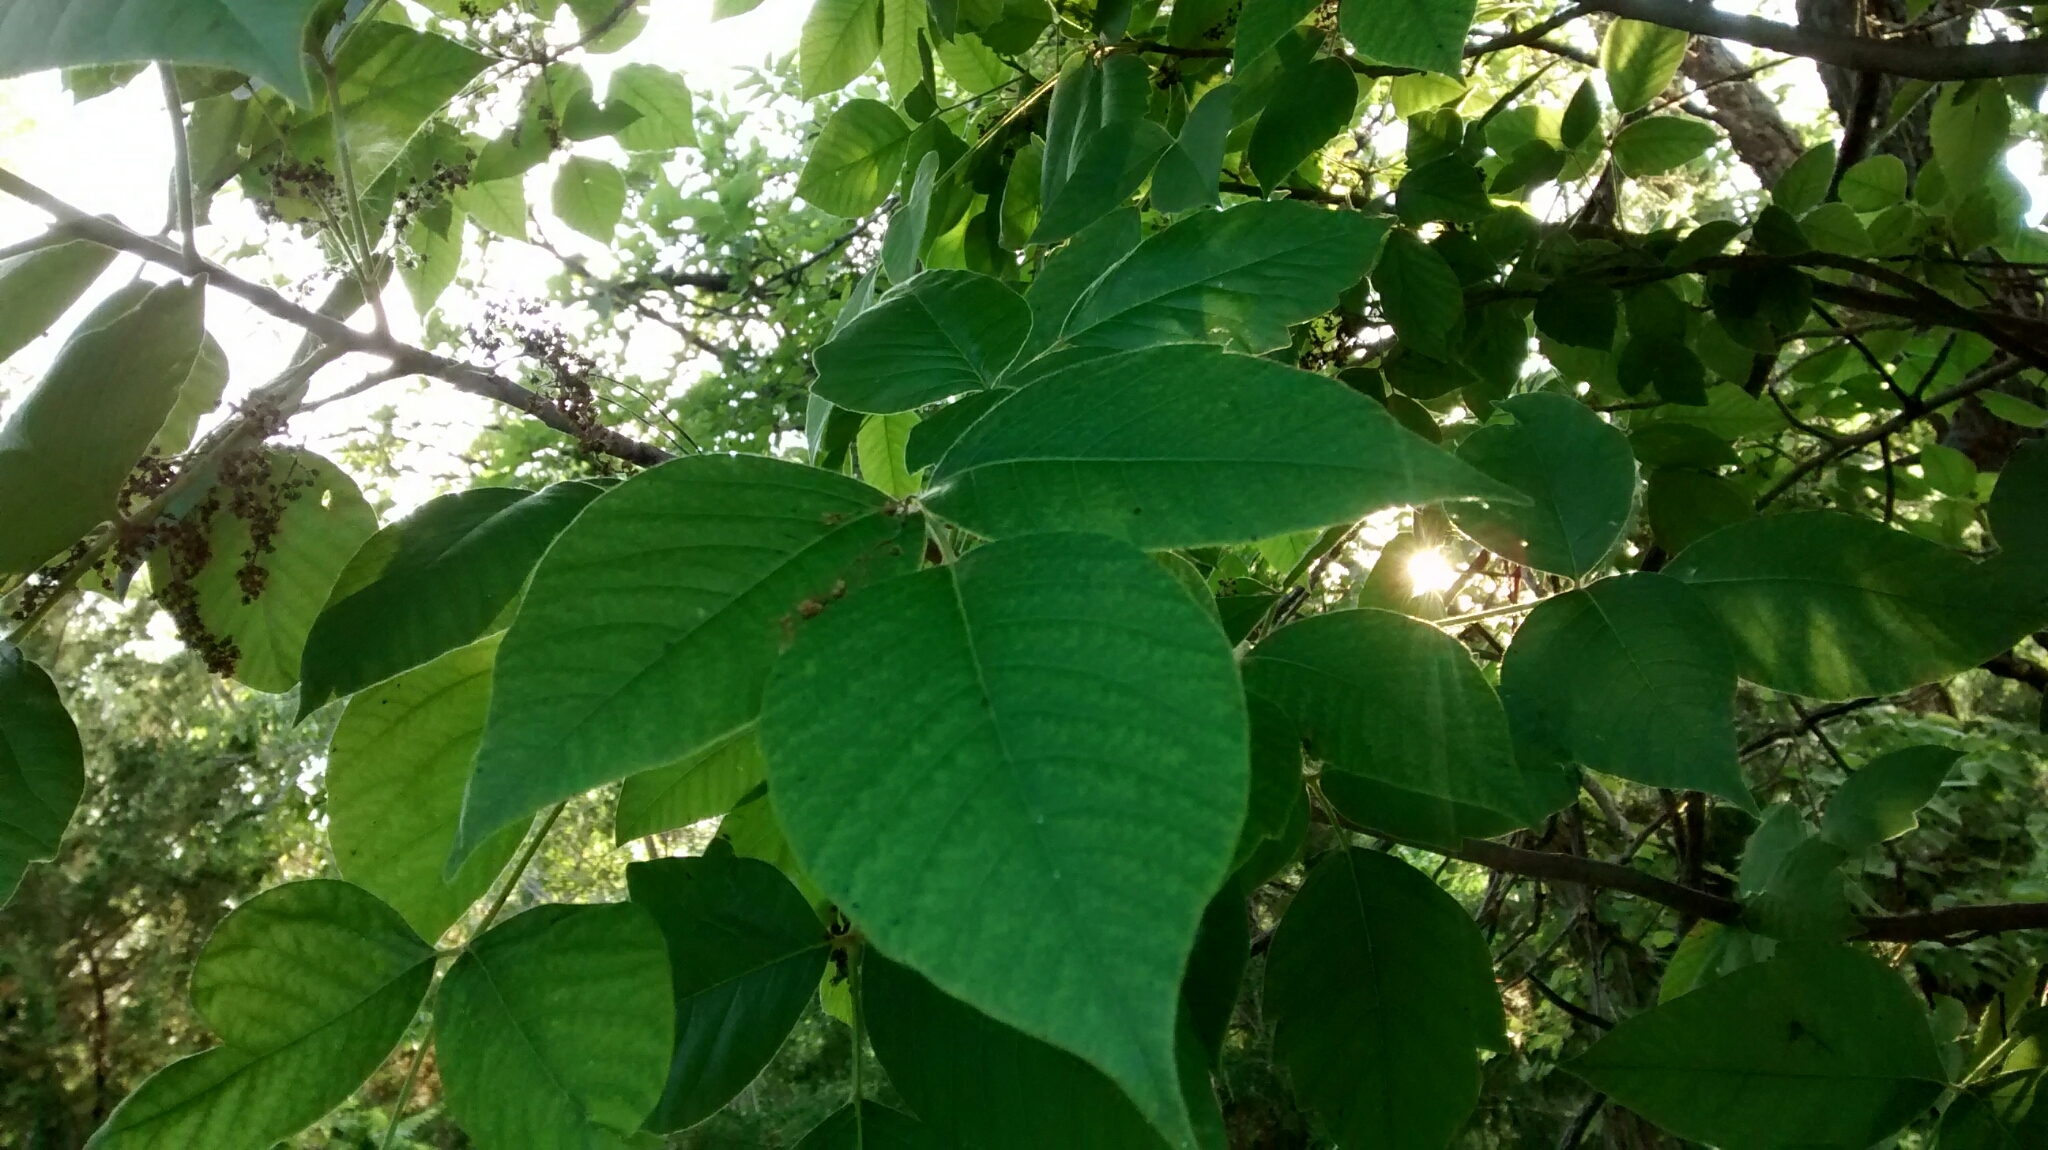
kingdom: Plantae
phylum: Tracheophyta
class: Magnoliopsida
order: Sapindales
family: Anacardiaceae
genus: Toxicodendron
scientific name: Toxicodendron radicans
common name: Poison ivy
